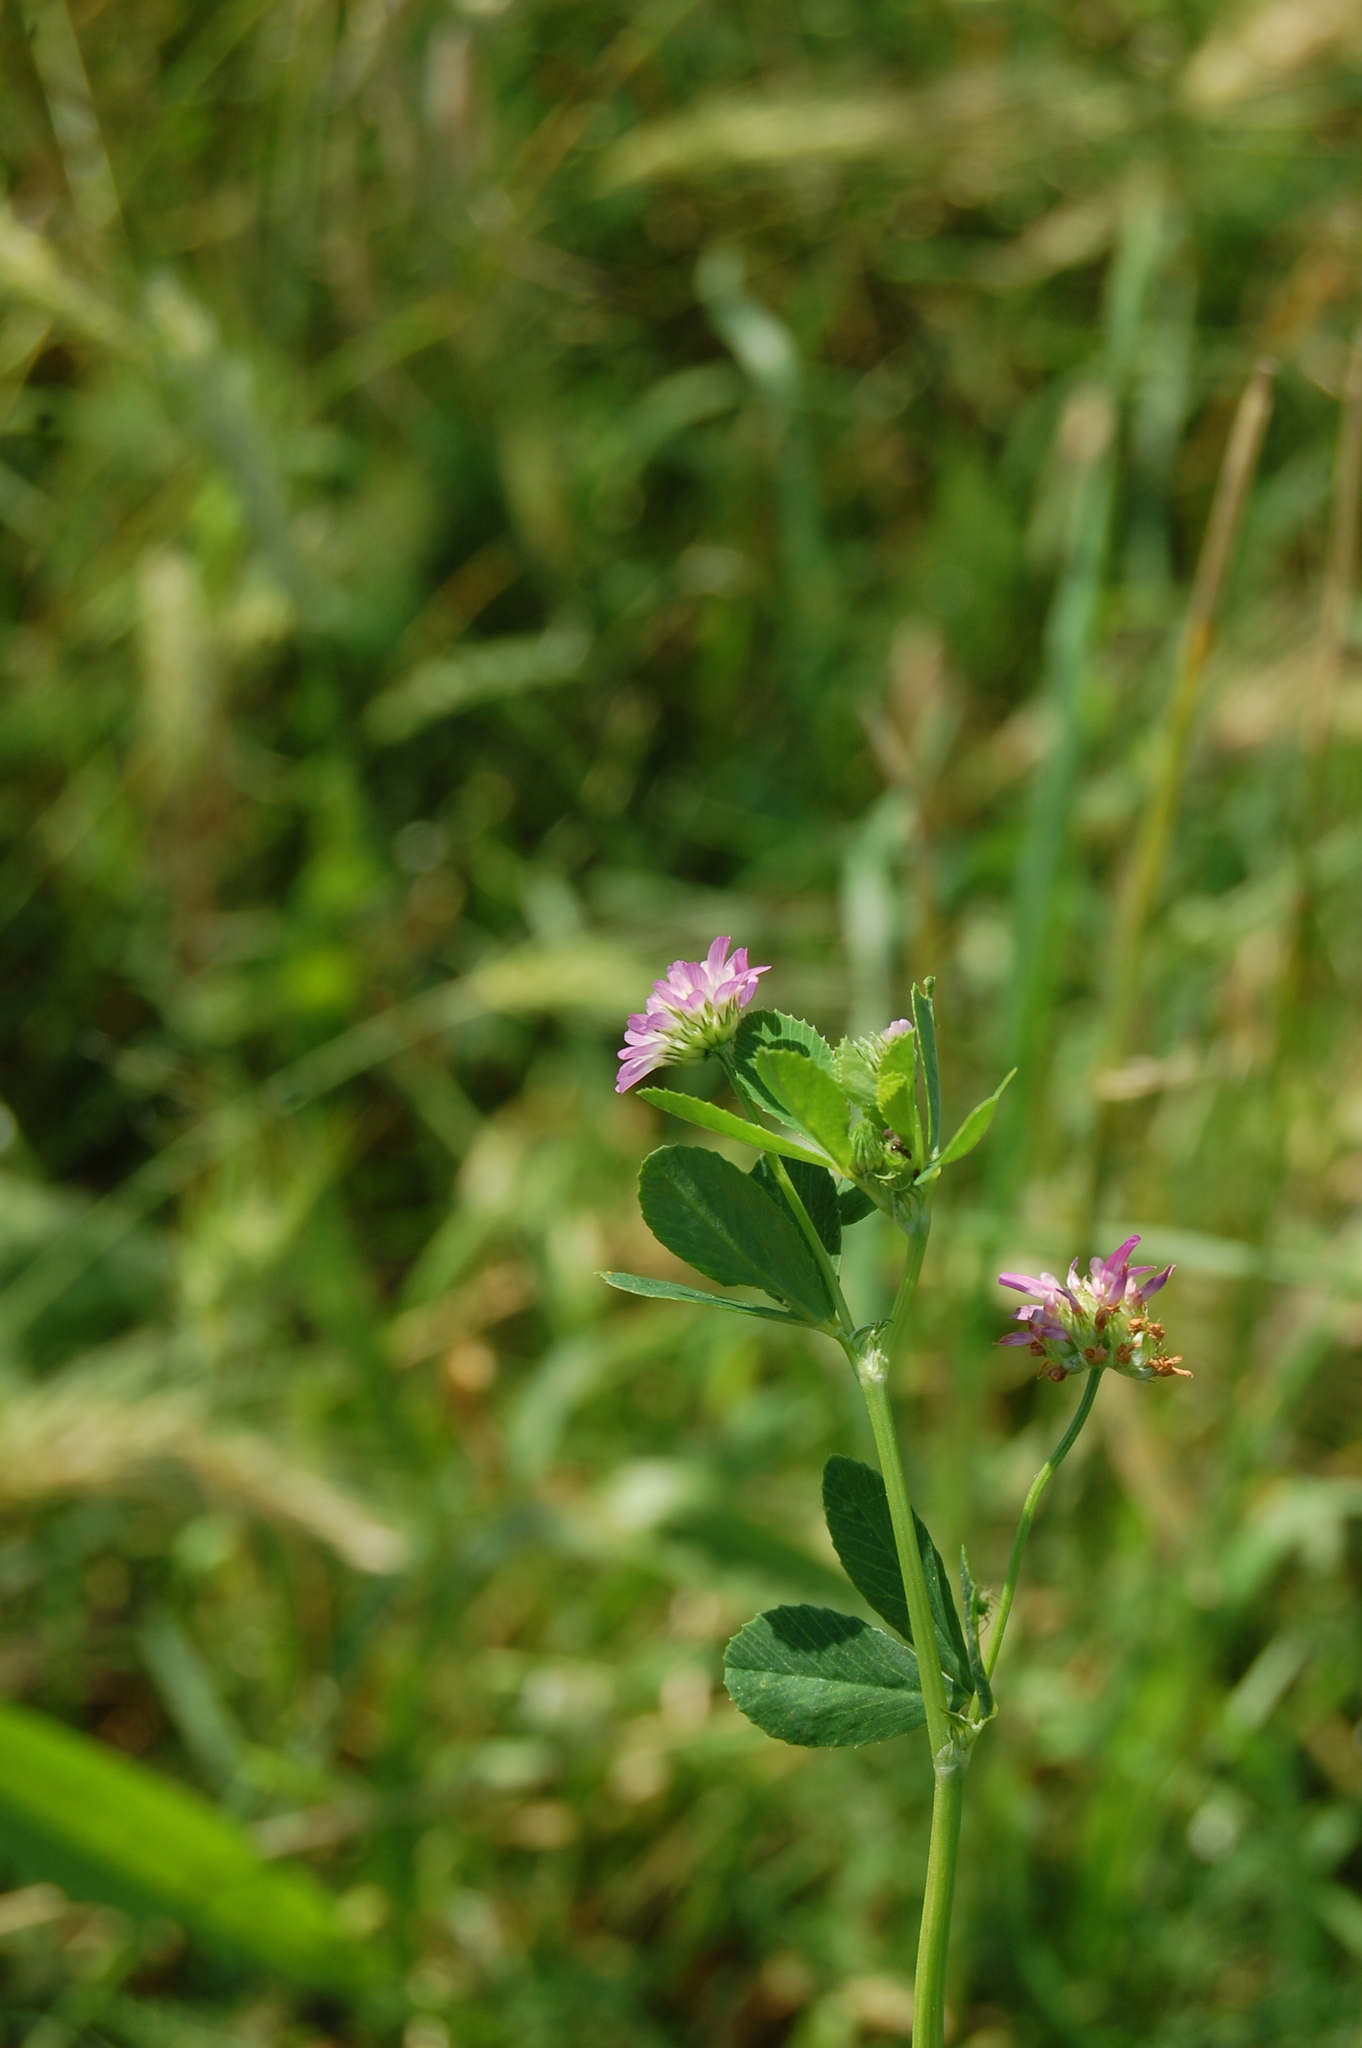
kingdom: Plantae
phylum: Tracheophyta
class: Magnoliopsida
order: Fabales
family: Fabaceae
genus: Trifolium
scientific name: Trifolium resupinatum
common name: Reversed clover
